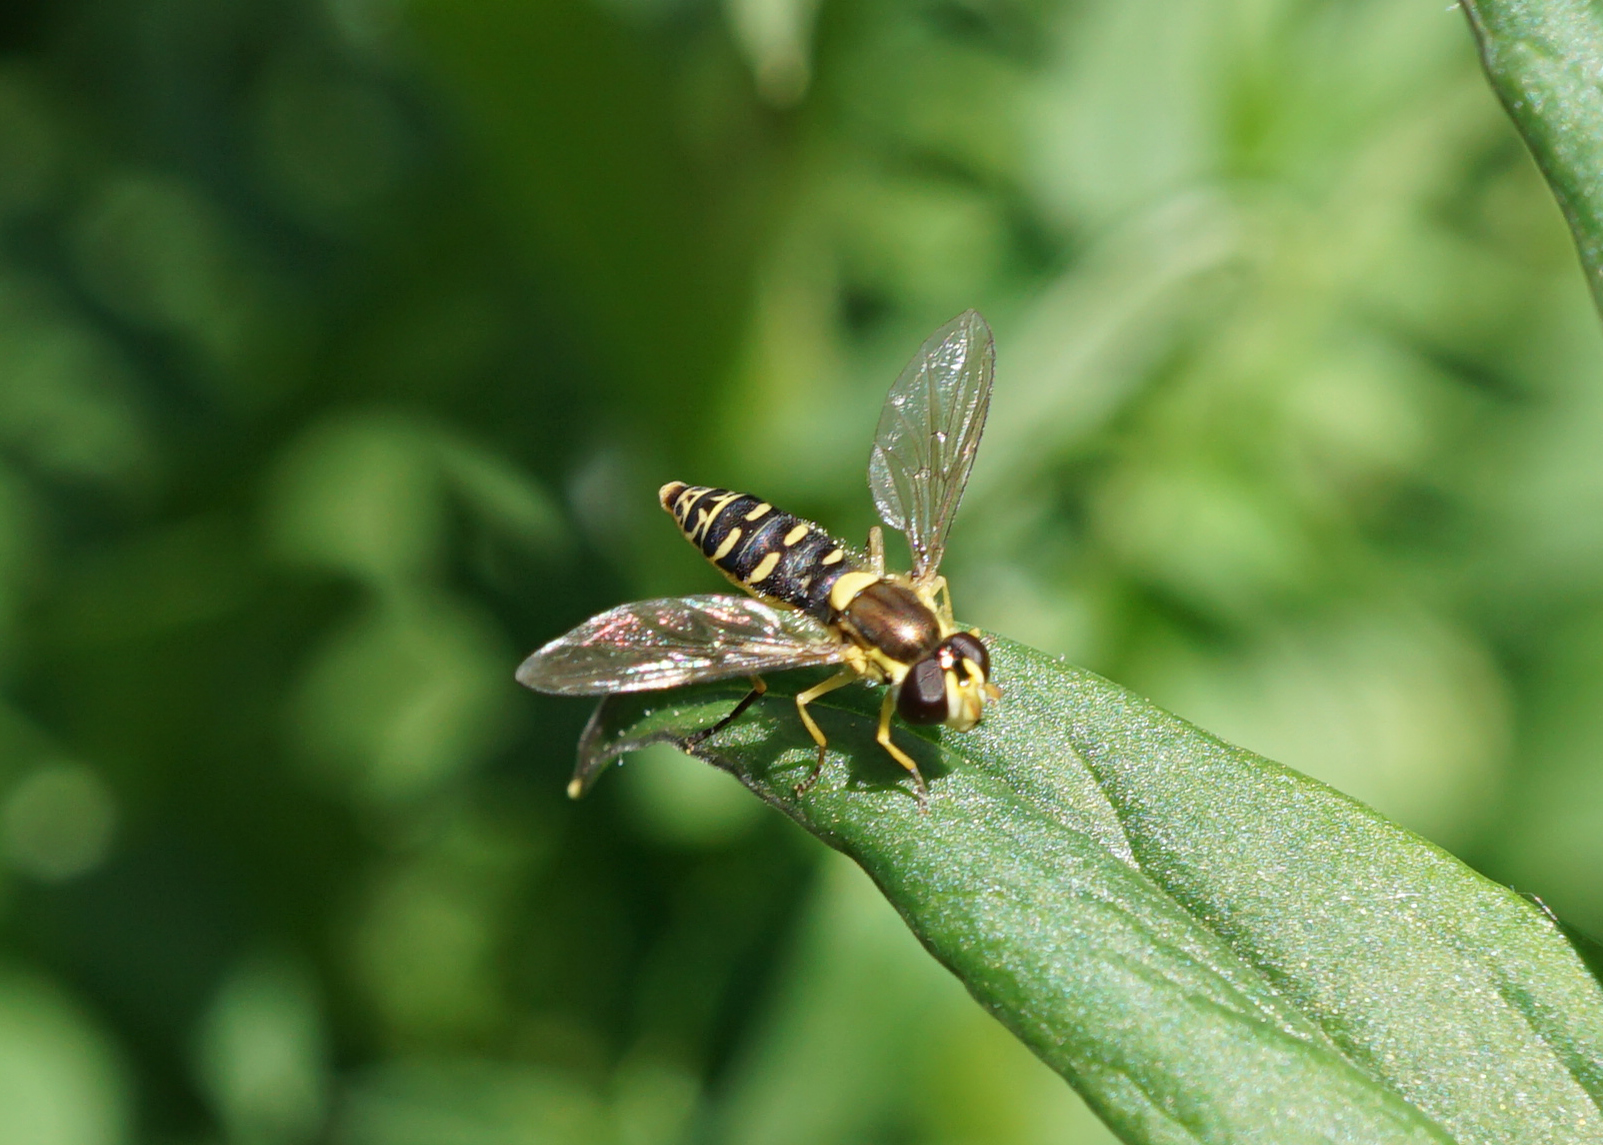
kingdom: Animalia
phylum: Arthropoda
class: Insecta
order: Diptera
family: Syrphidae
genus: Sphaerophoria
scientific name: Sphaerophoria
